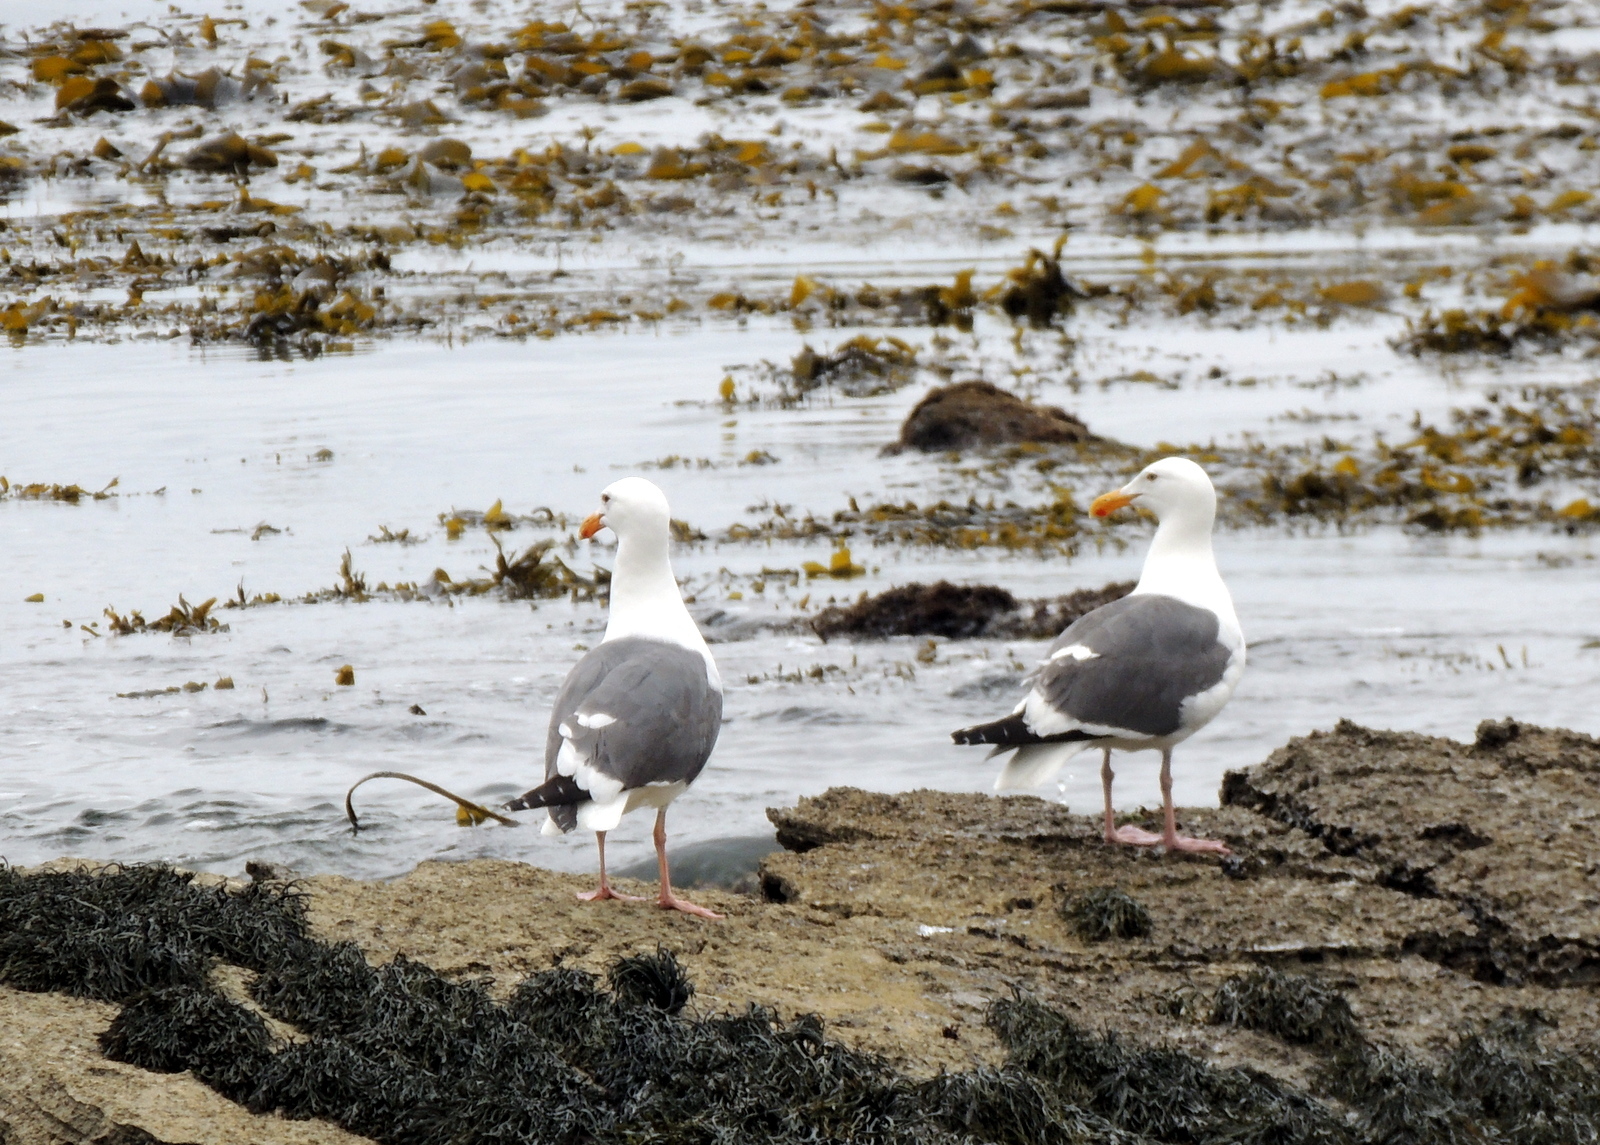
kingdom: Animalia
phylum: Chordata
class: Aves
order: Charadriiformes
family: Laridae
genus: Larus
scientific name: Larus occidentalis
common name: Western gull
